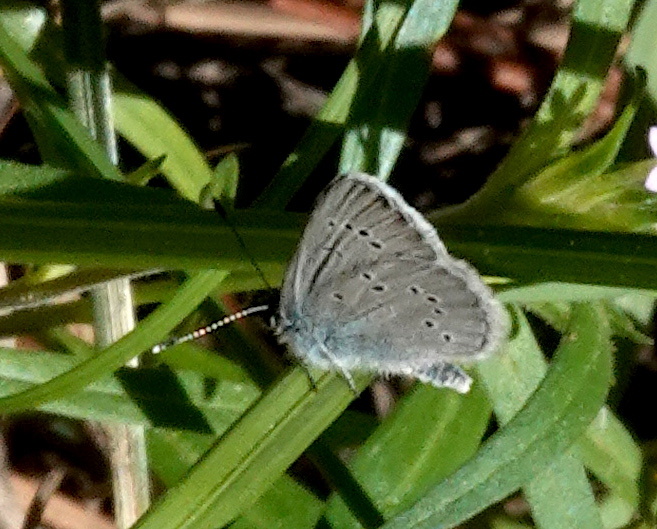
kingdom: Animalia
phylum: Arthropoda
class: Insecta
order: Lepidoptera
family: Lycaenidae
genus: Glaucopsyche
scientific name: Glaucopsyche lygdamus
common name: Silvery blue
